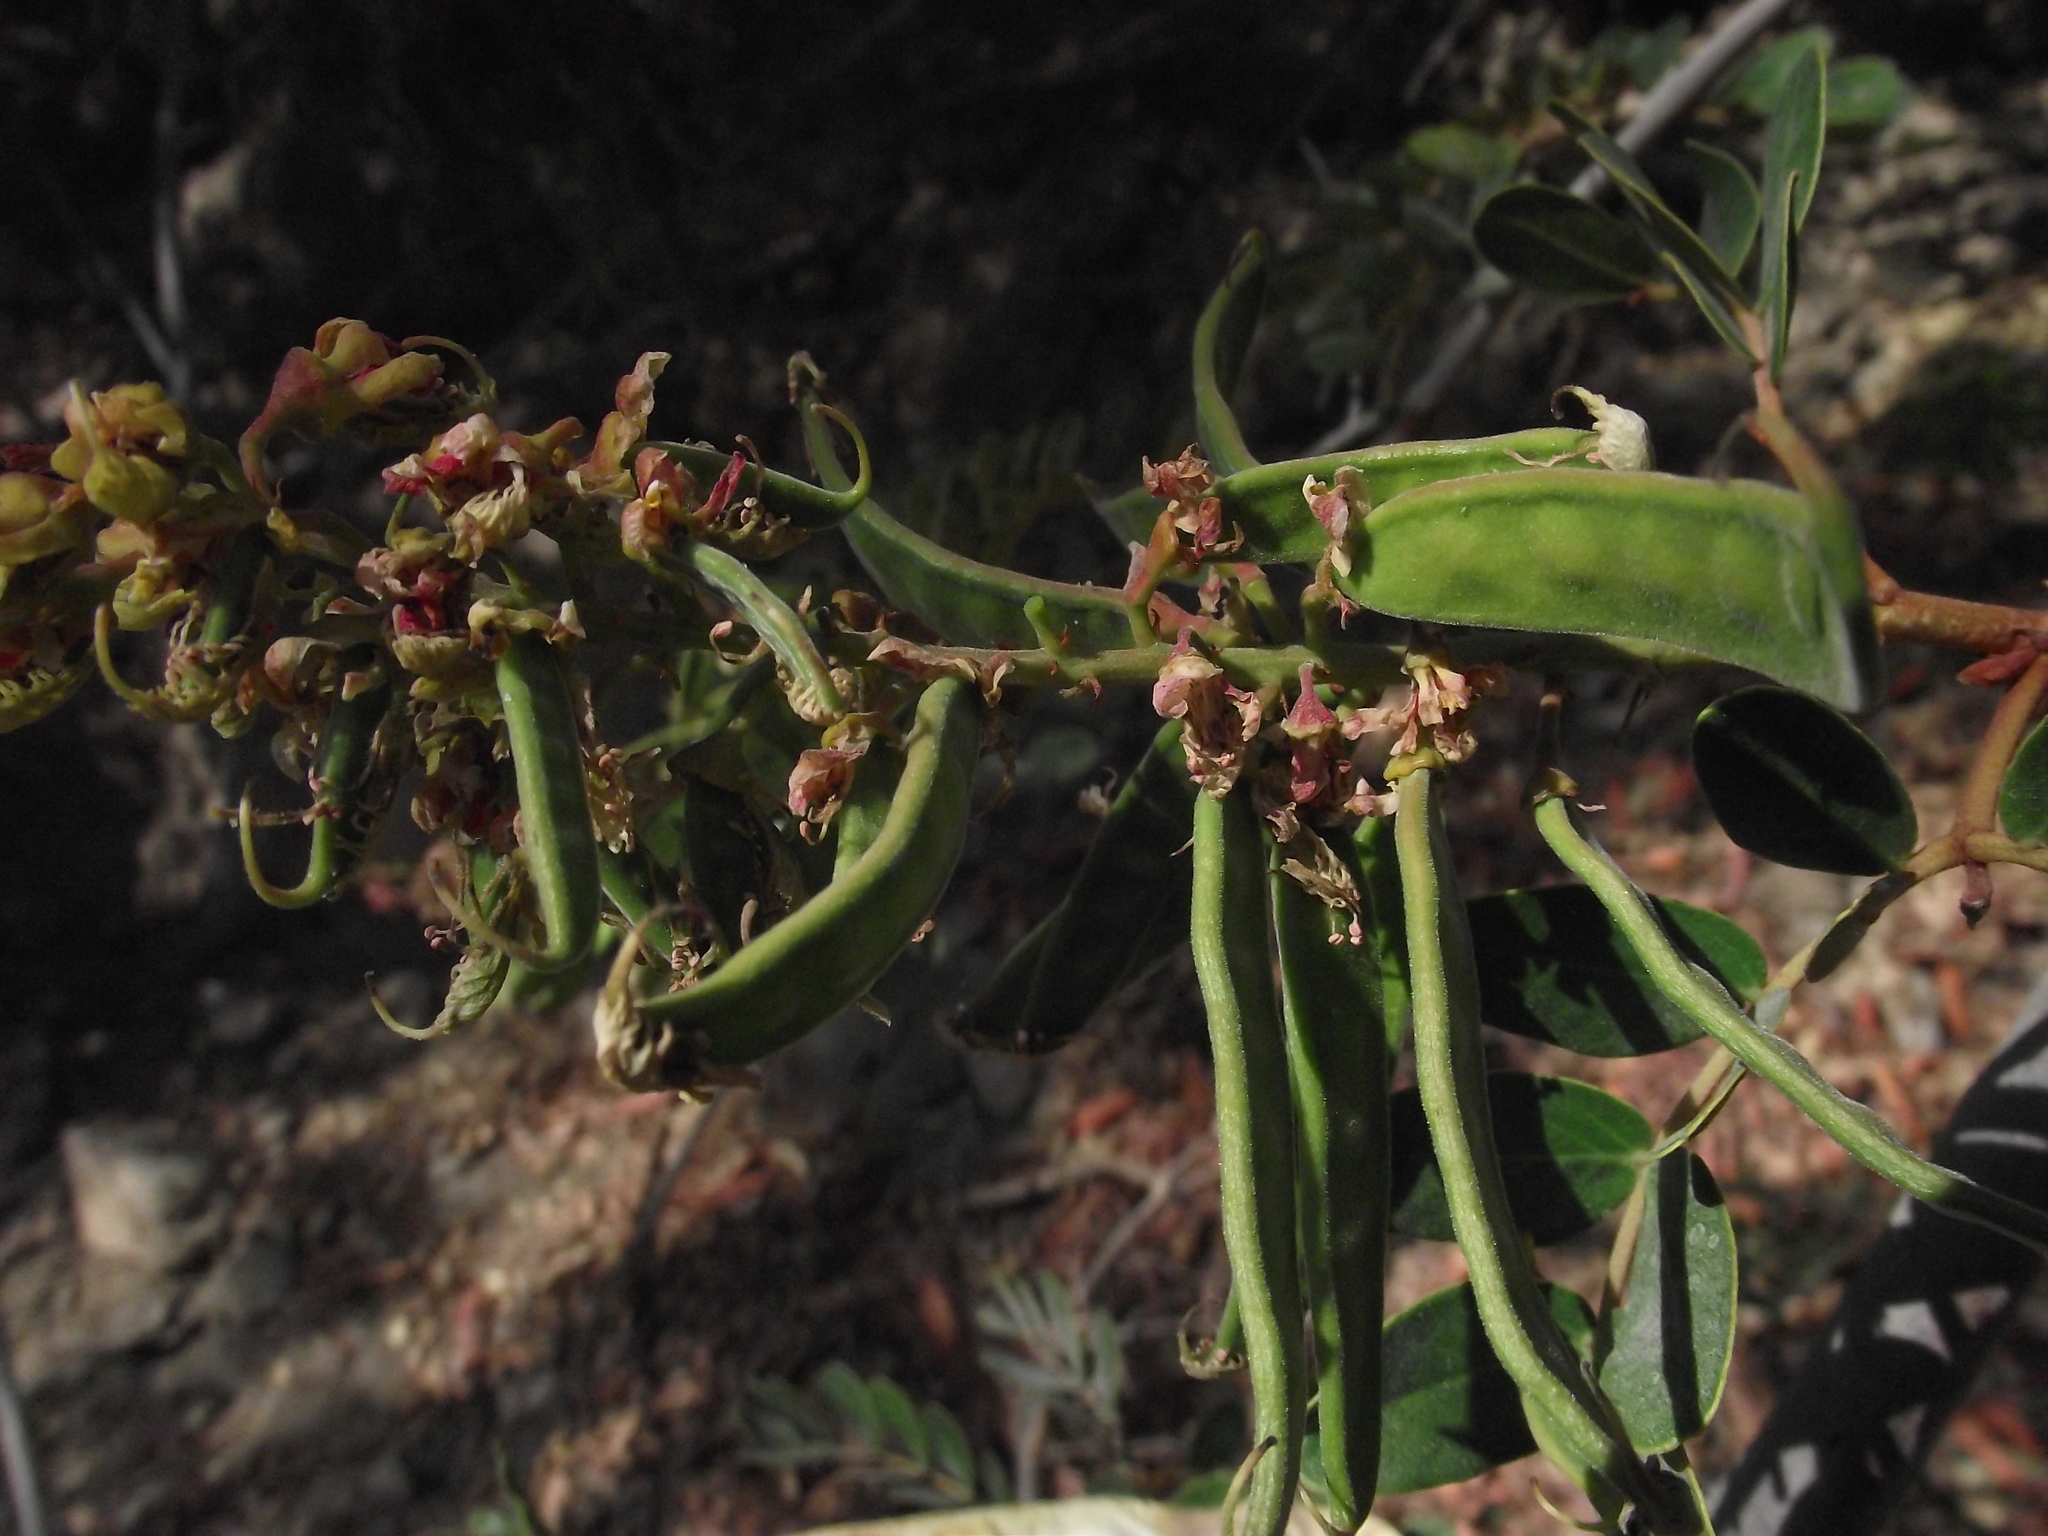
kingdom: Plantae
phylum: Tracheophyta
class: Magnoliopsida
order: Fabales
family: Fabaceae
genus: Tara
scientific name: Tara spinosa
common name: Spiny holdback
